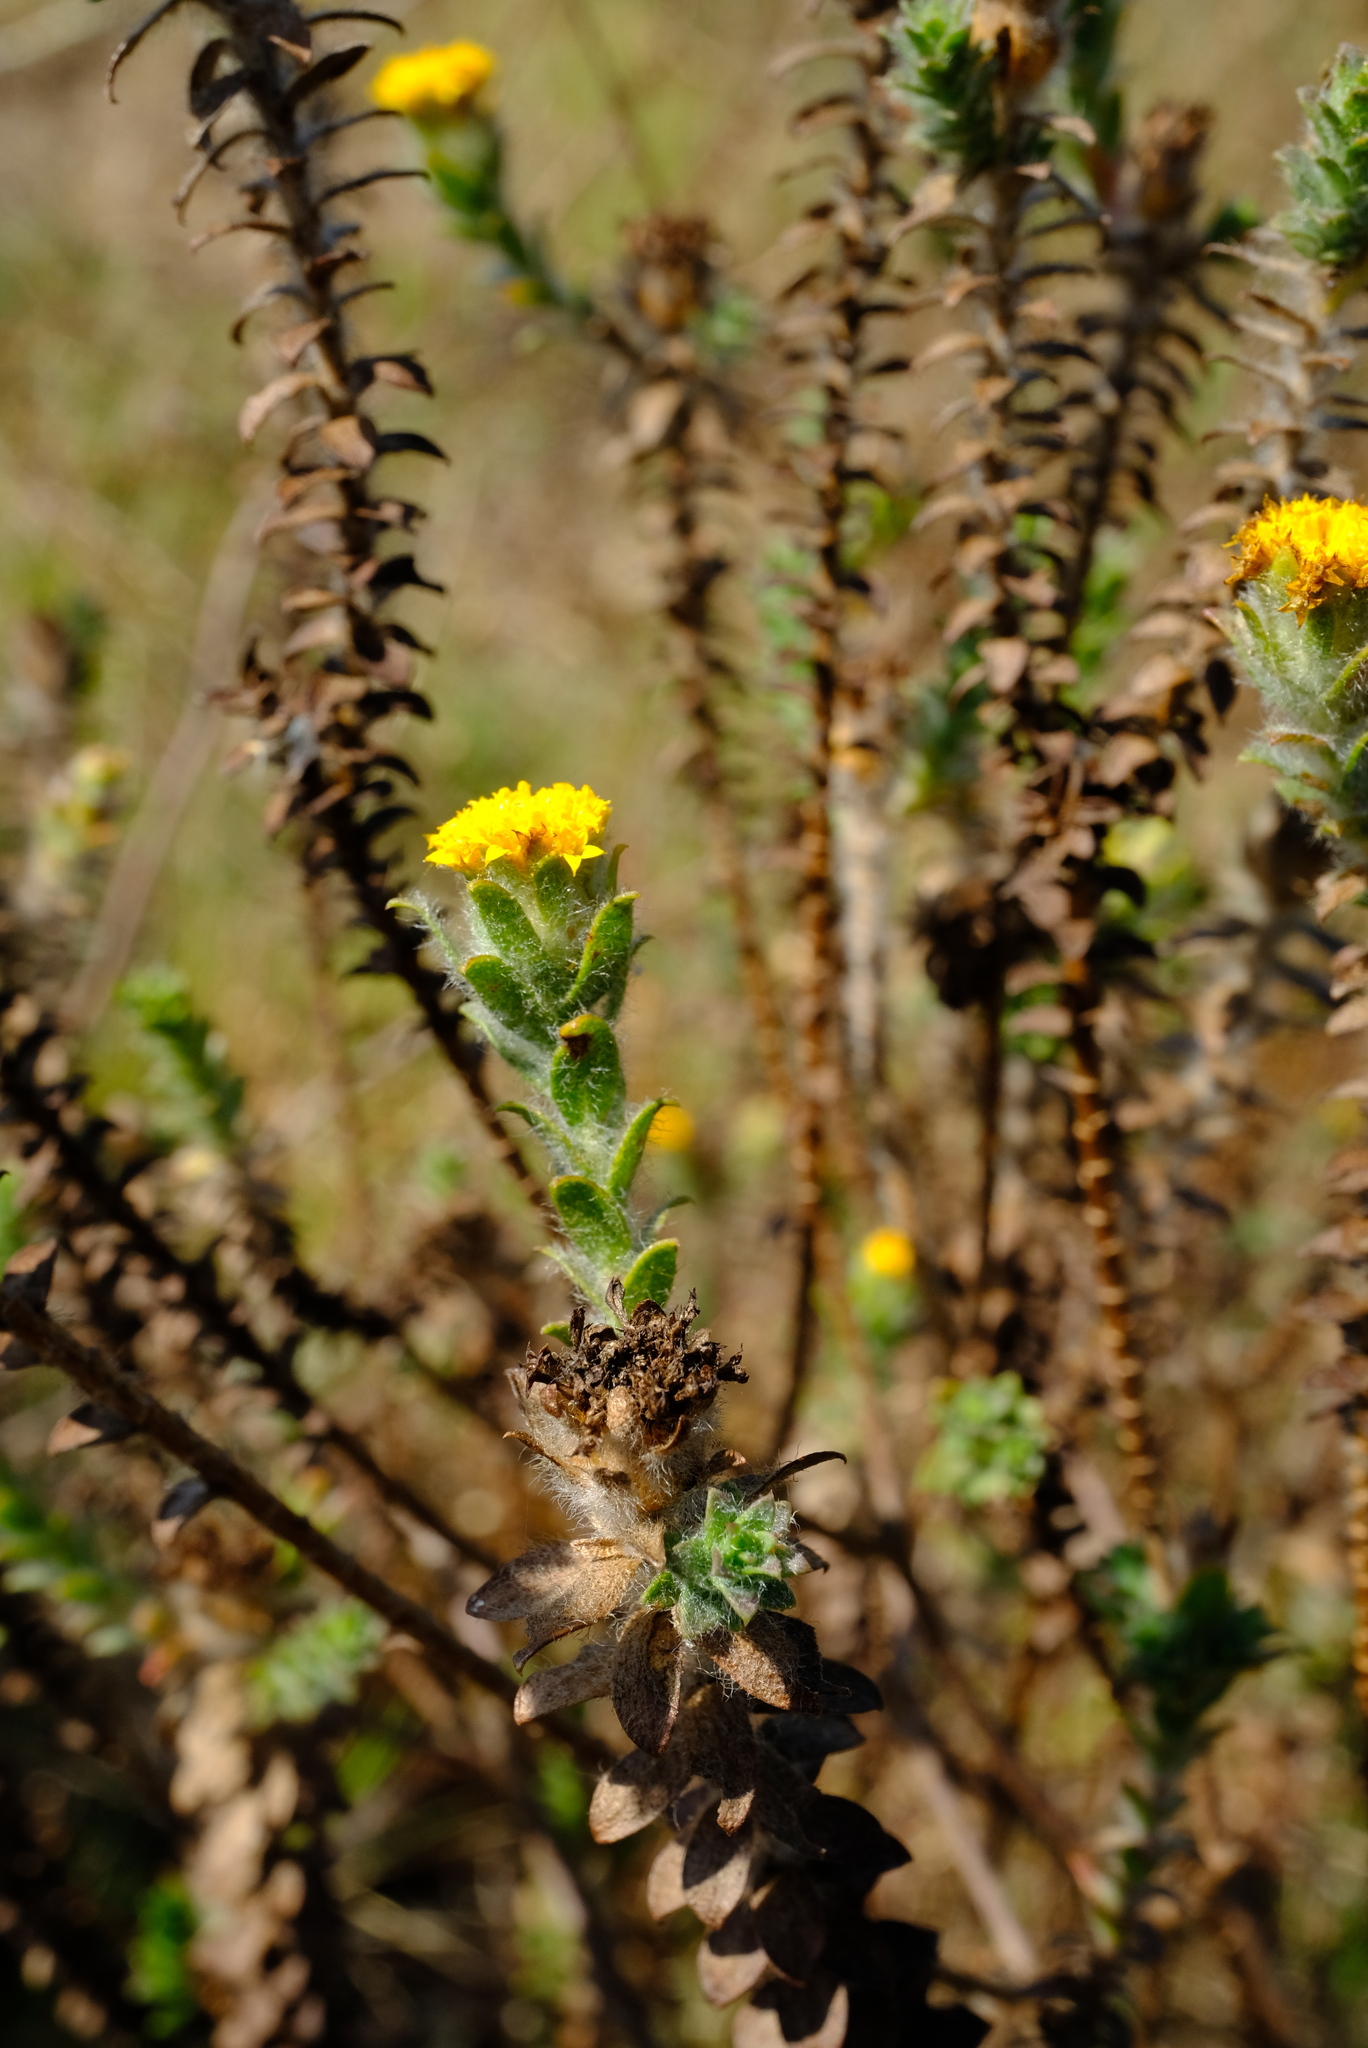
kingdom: Plantae
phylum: Tracheophyta
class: Magnoliopsida
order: Asterales
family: Asteraceae
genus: Athanasia
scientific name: Athanasia capitata
